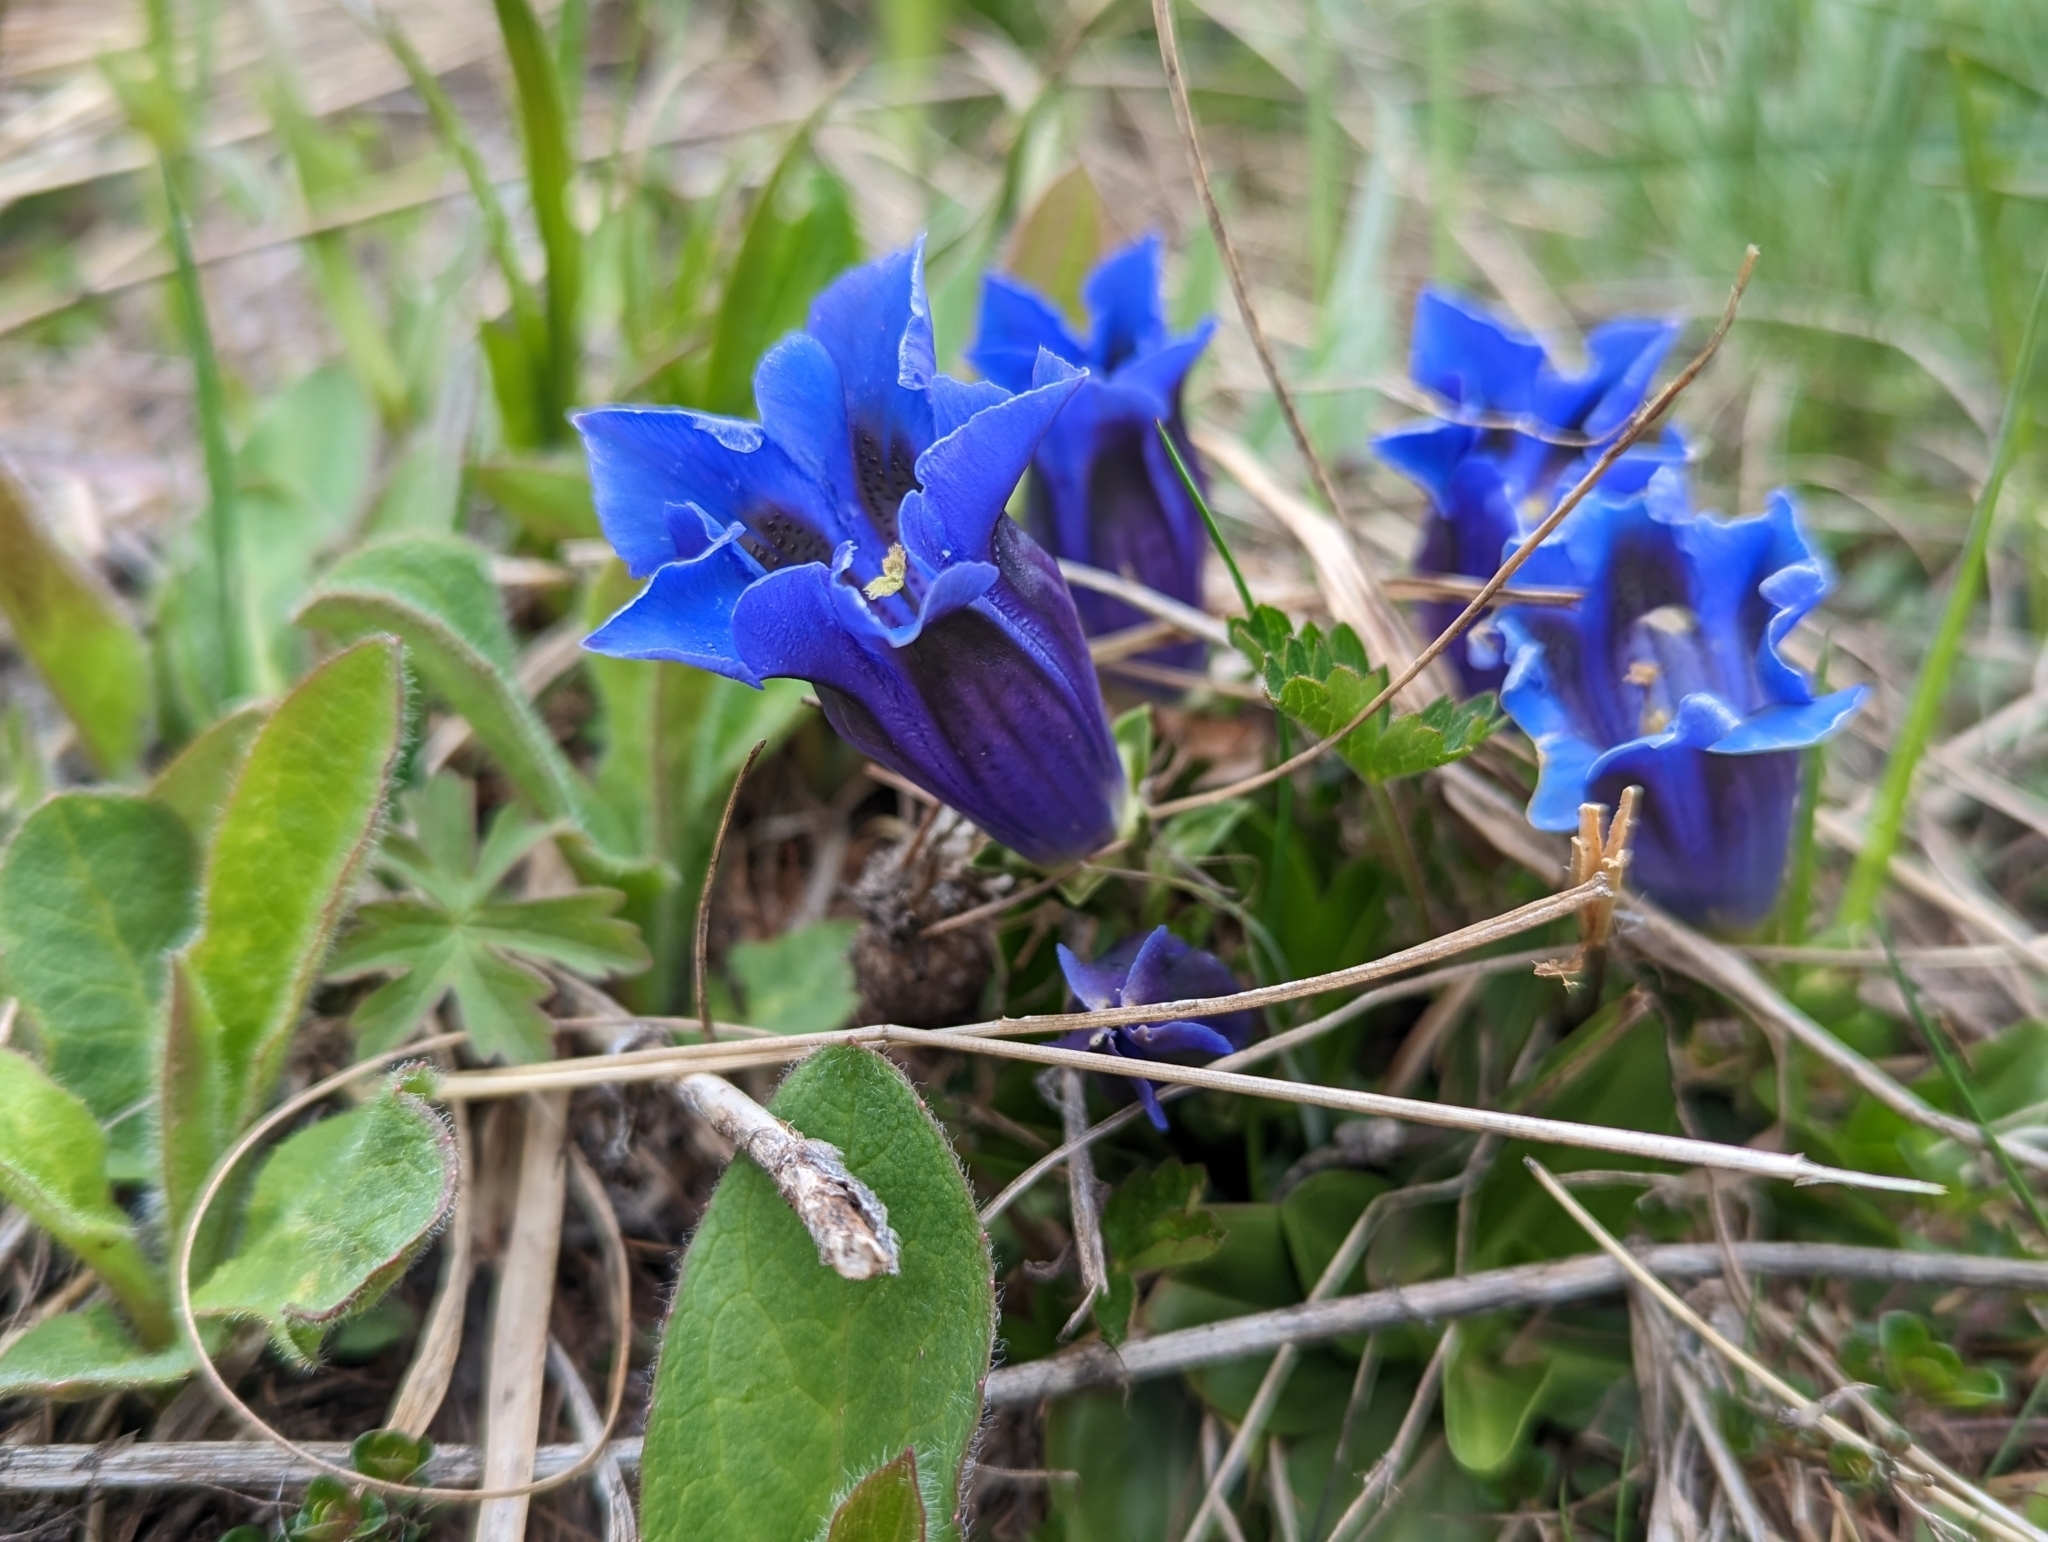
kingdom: Plantae
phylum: Tracheophyta
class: Magnoliopsida
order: Gentianales
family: Gentianaceae
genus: Gentiana
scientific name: Gentiana acaulis
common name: Trumpet gentian
